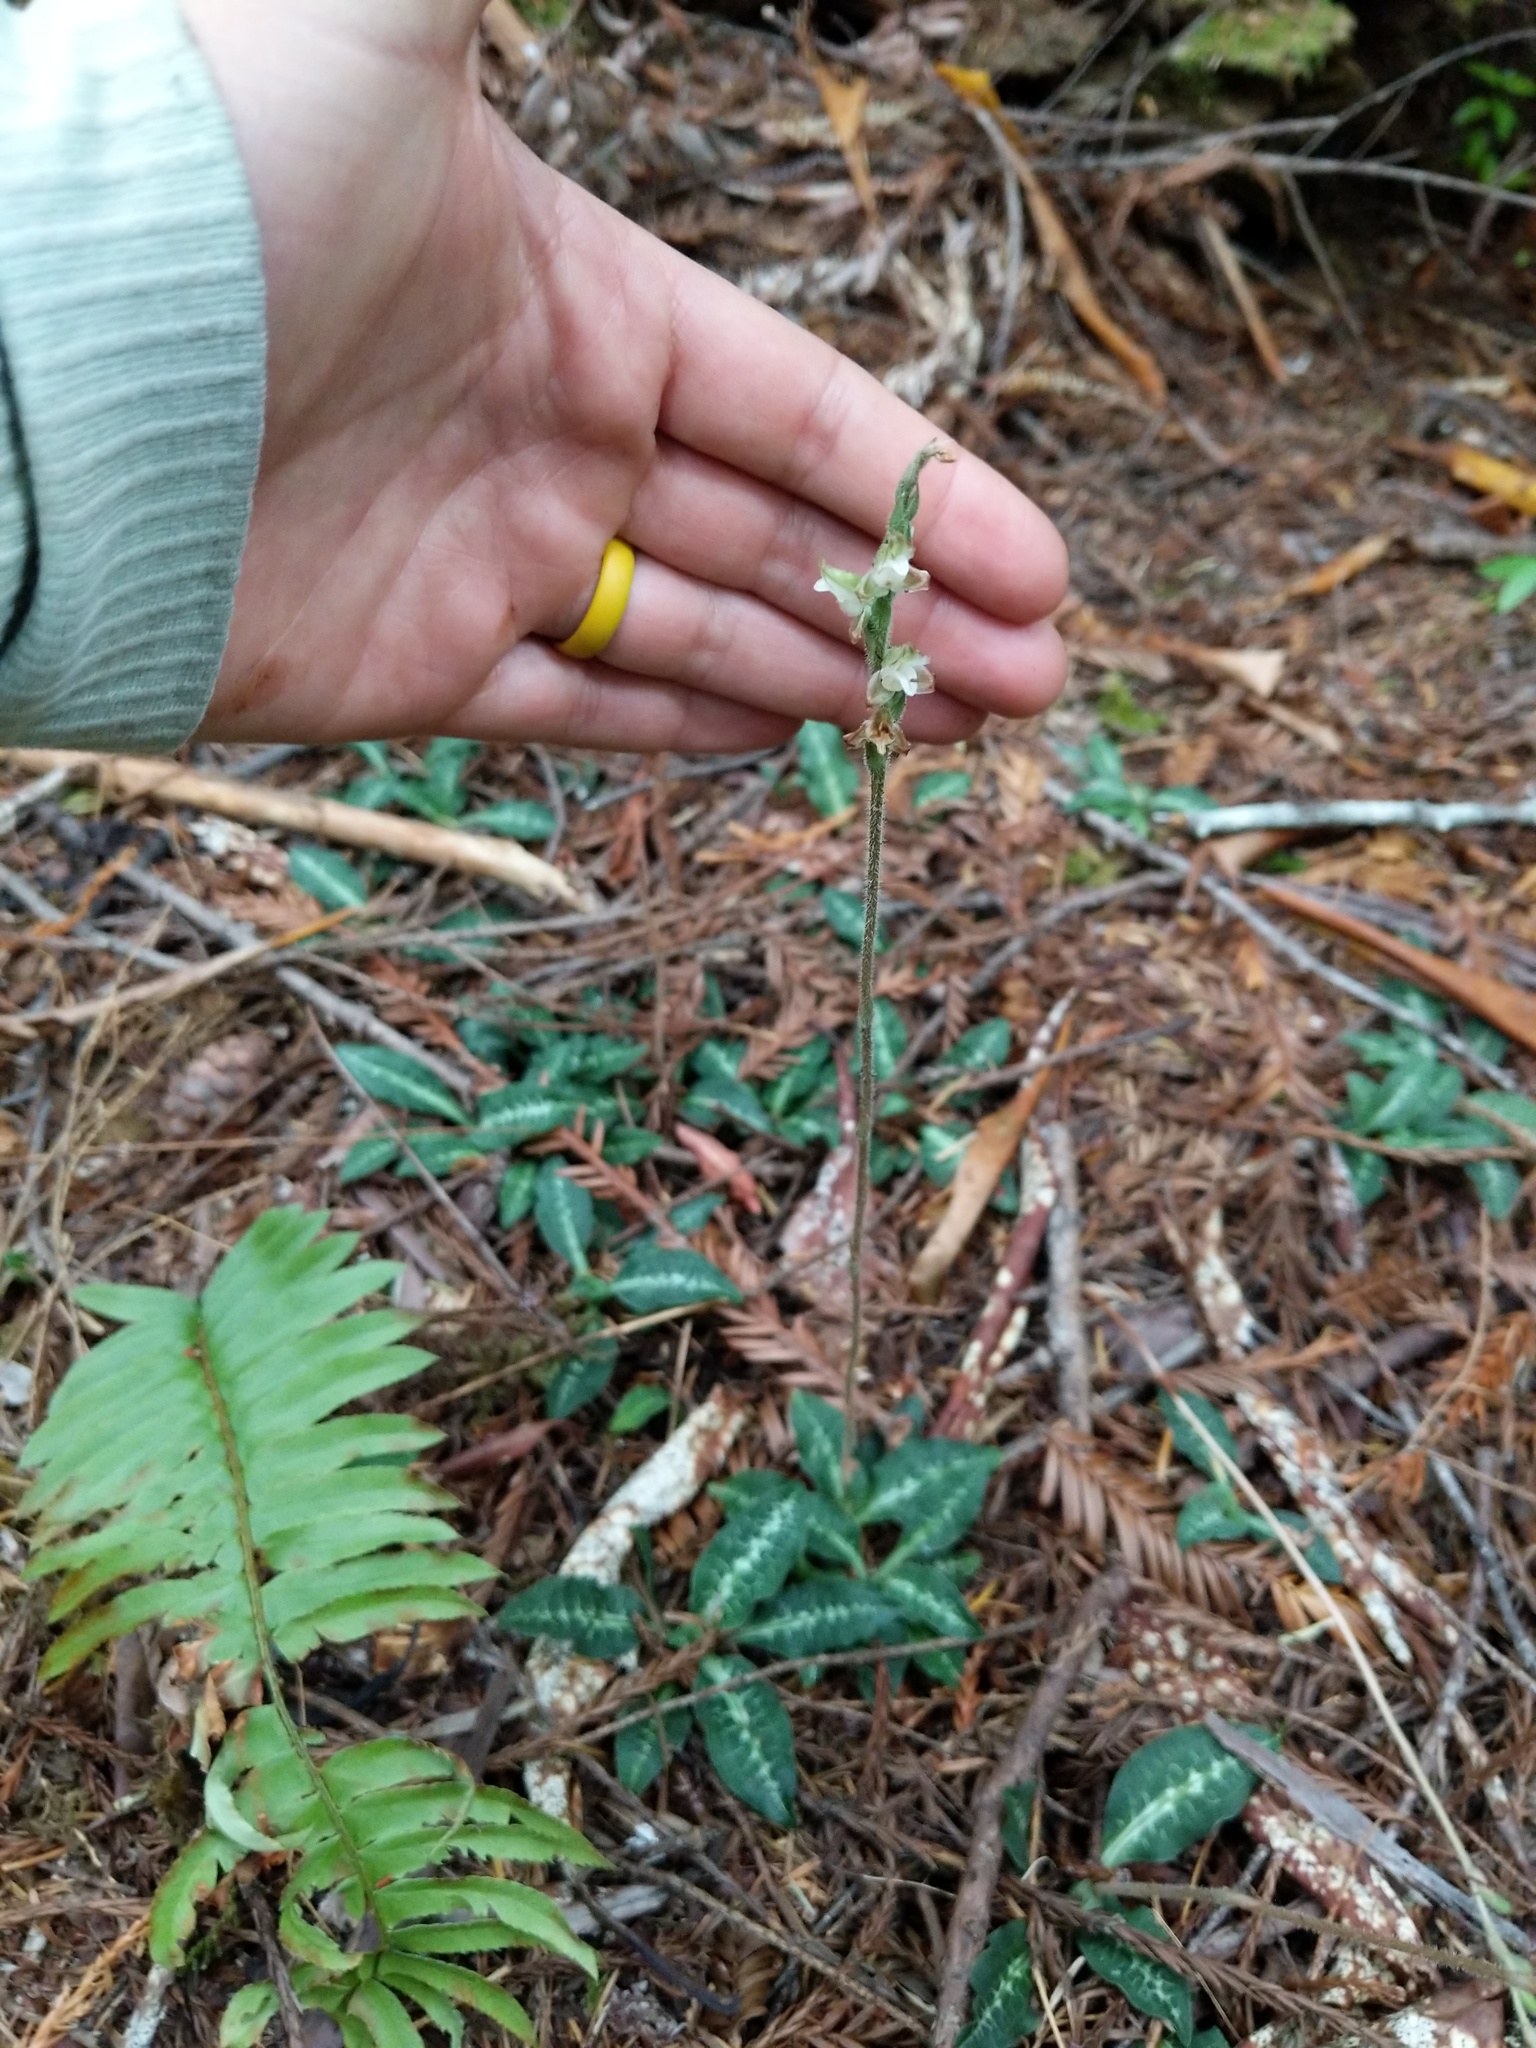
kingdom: Plantae
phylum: Tracheophyta
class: Liliopsida
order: Asparagales
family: Orchidaceae
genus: Goodyera
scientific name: Goodyera oblongifolia
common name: Giant rattlesnake-plantain
